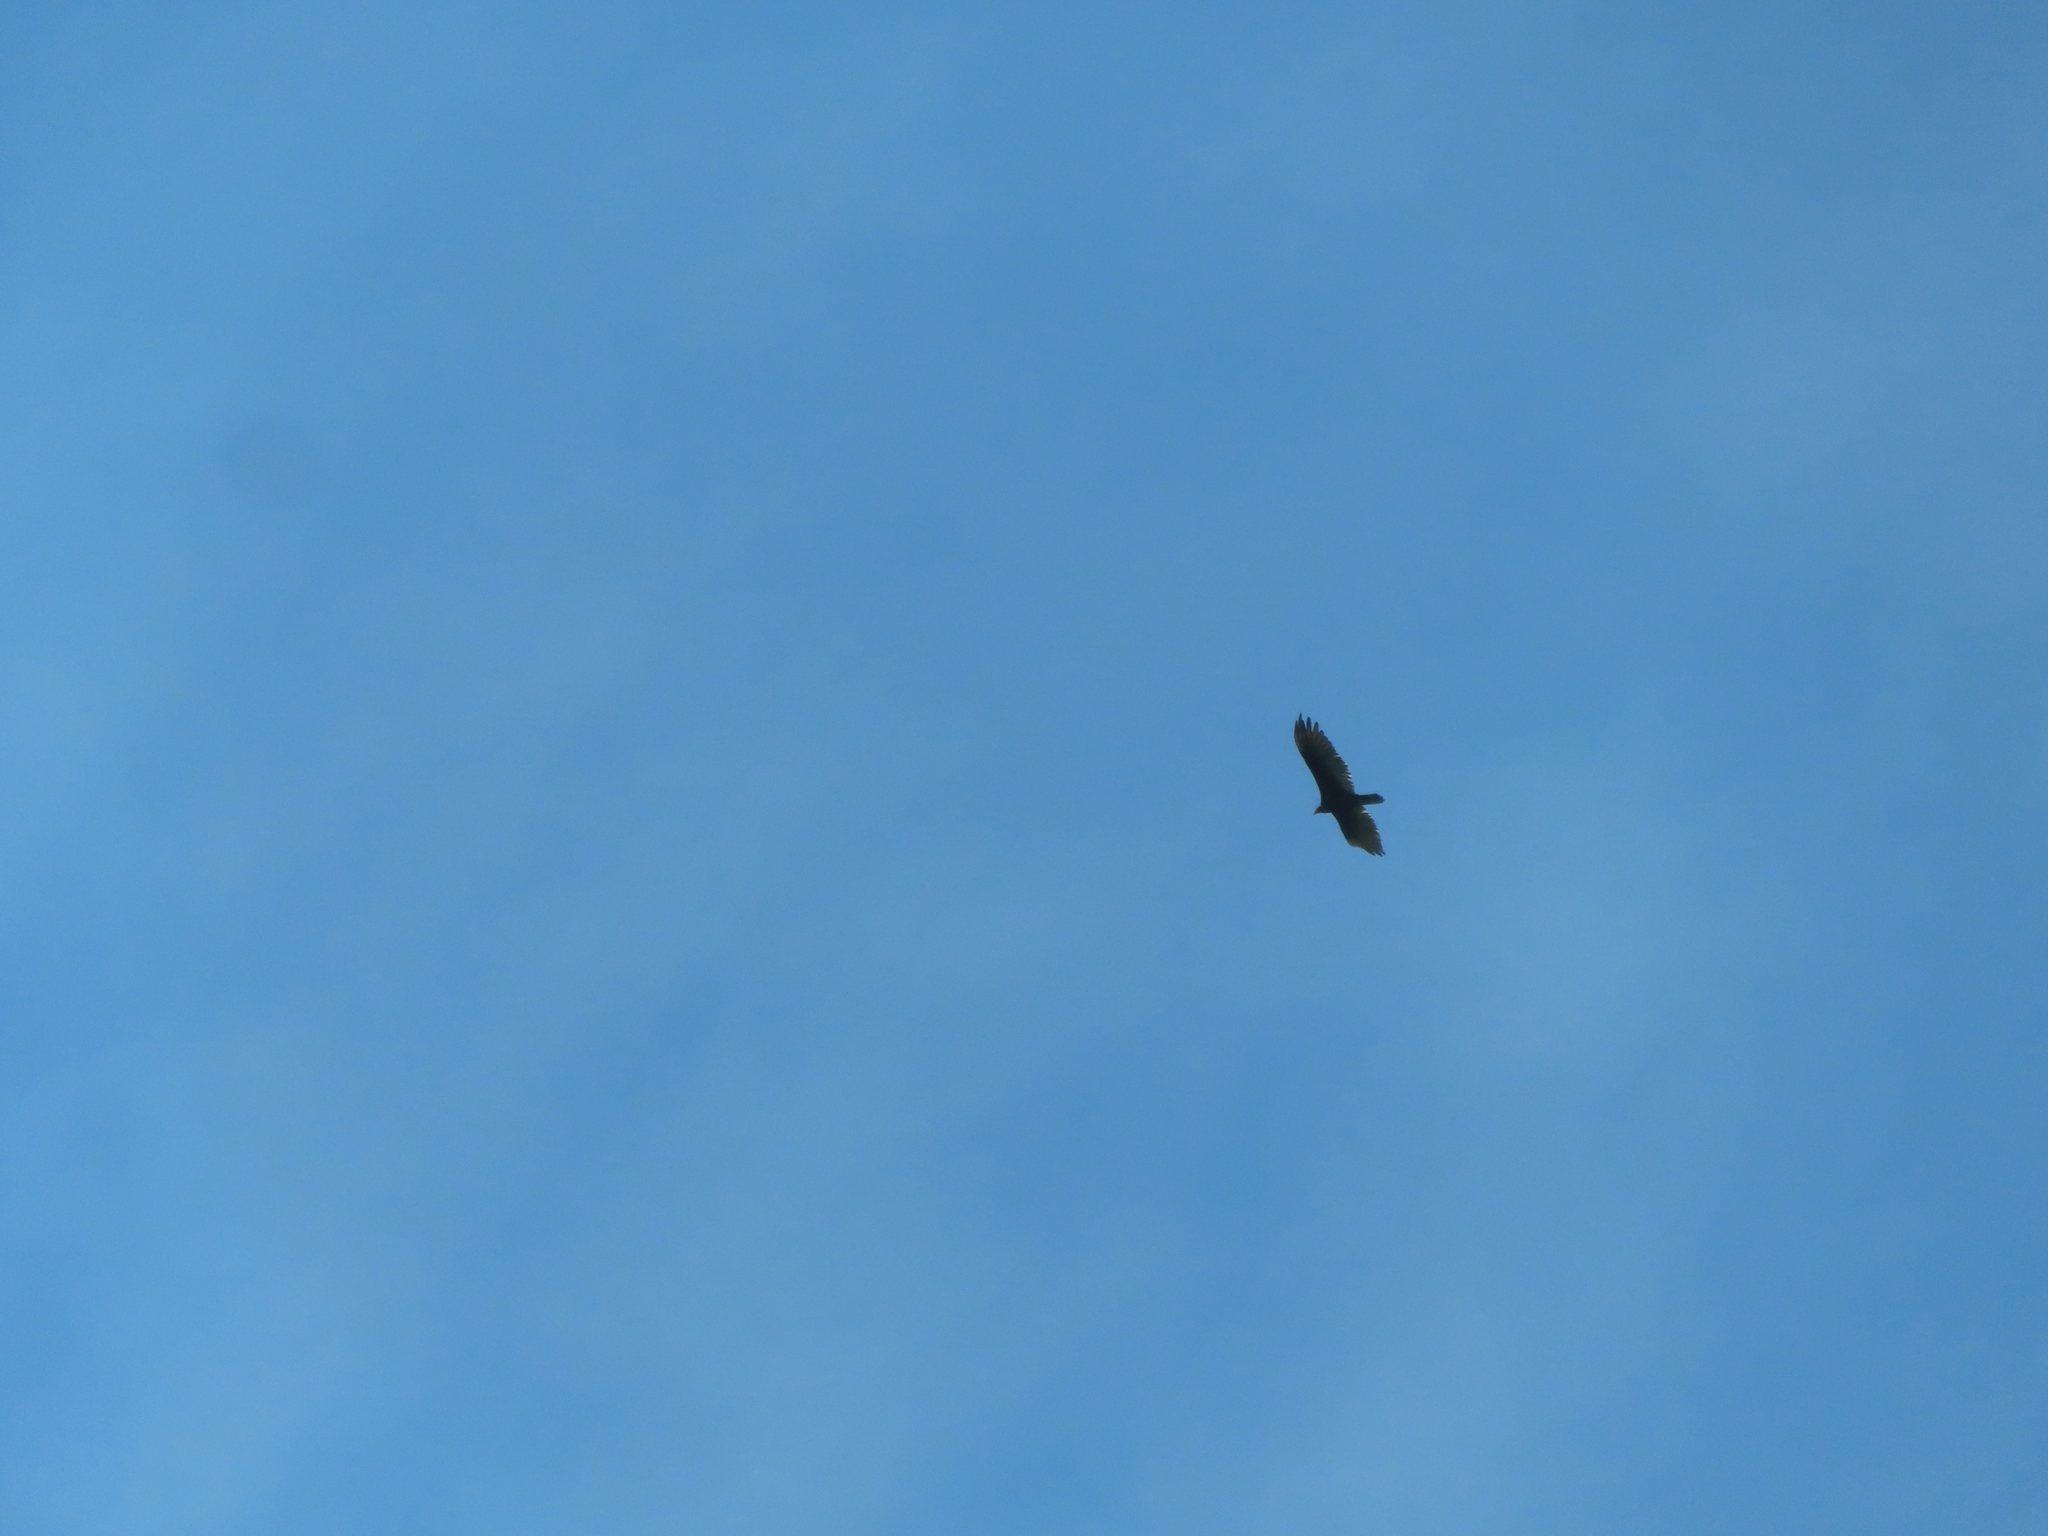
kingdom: Animalia
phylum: Chordata
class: Aves
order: Accipitriformes
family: Cathartidae
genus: Cathartes
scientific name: Cathartes aura
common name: Turkey vulture
